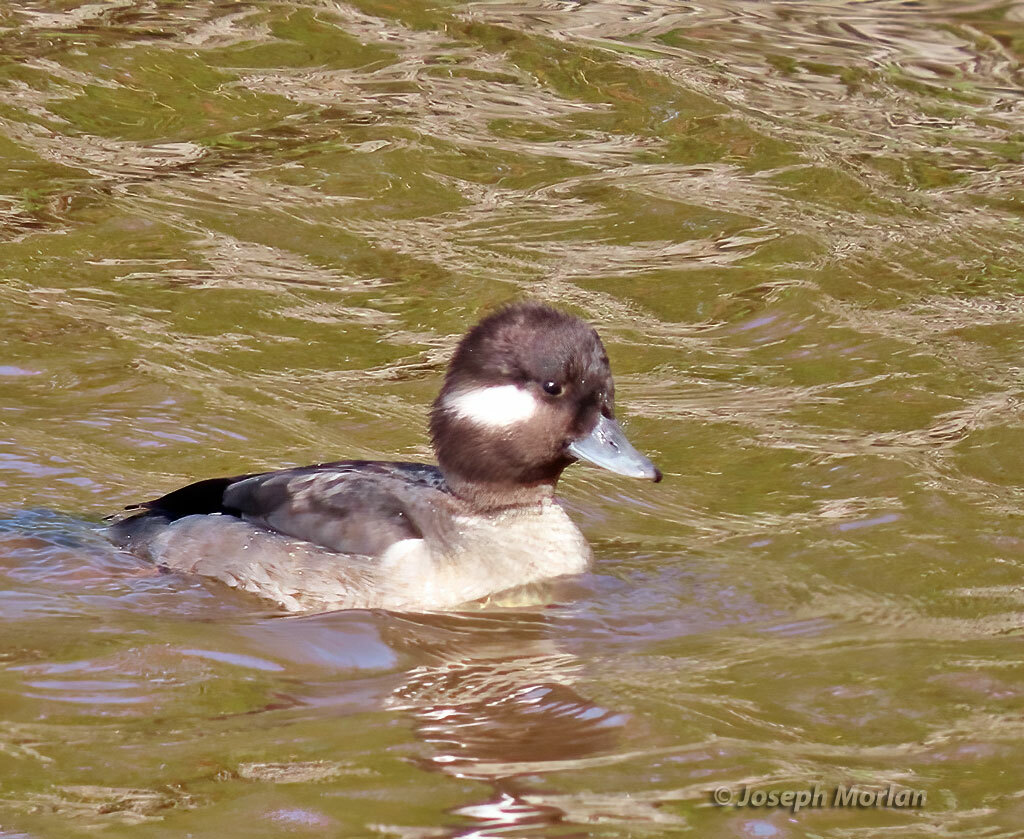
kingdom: Animalia
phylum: Chordata
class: Aves
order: Anseriformes
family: Anatidae
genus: Bucephala
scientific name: Bucephala albeola
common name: Bufflehead
